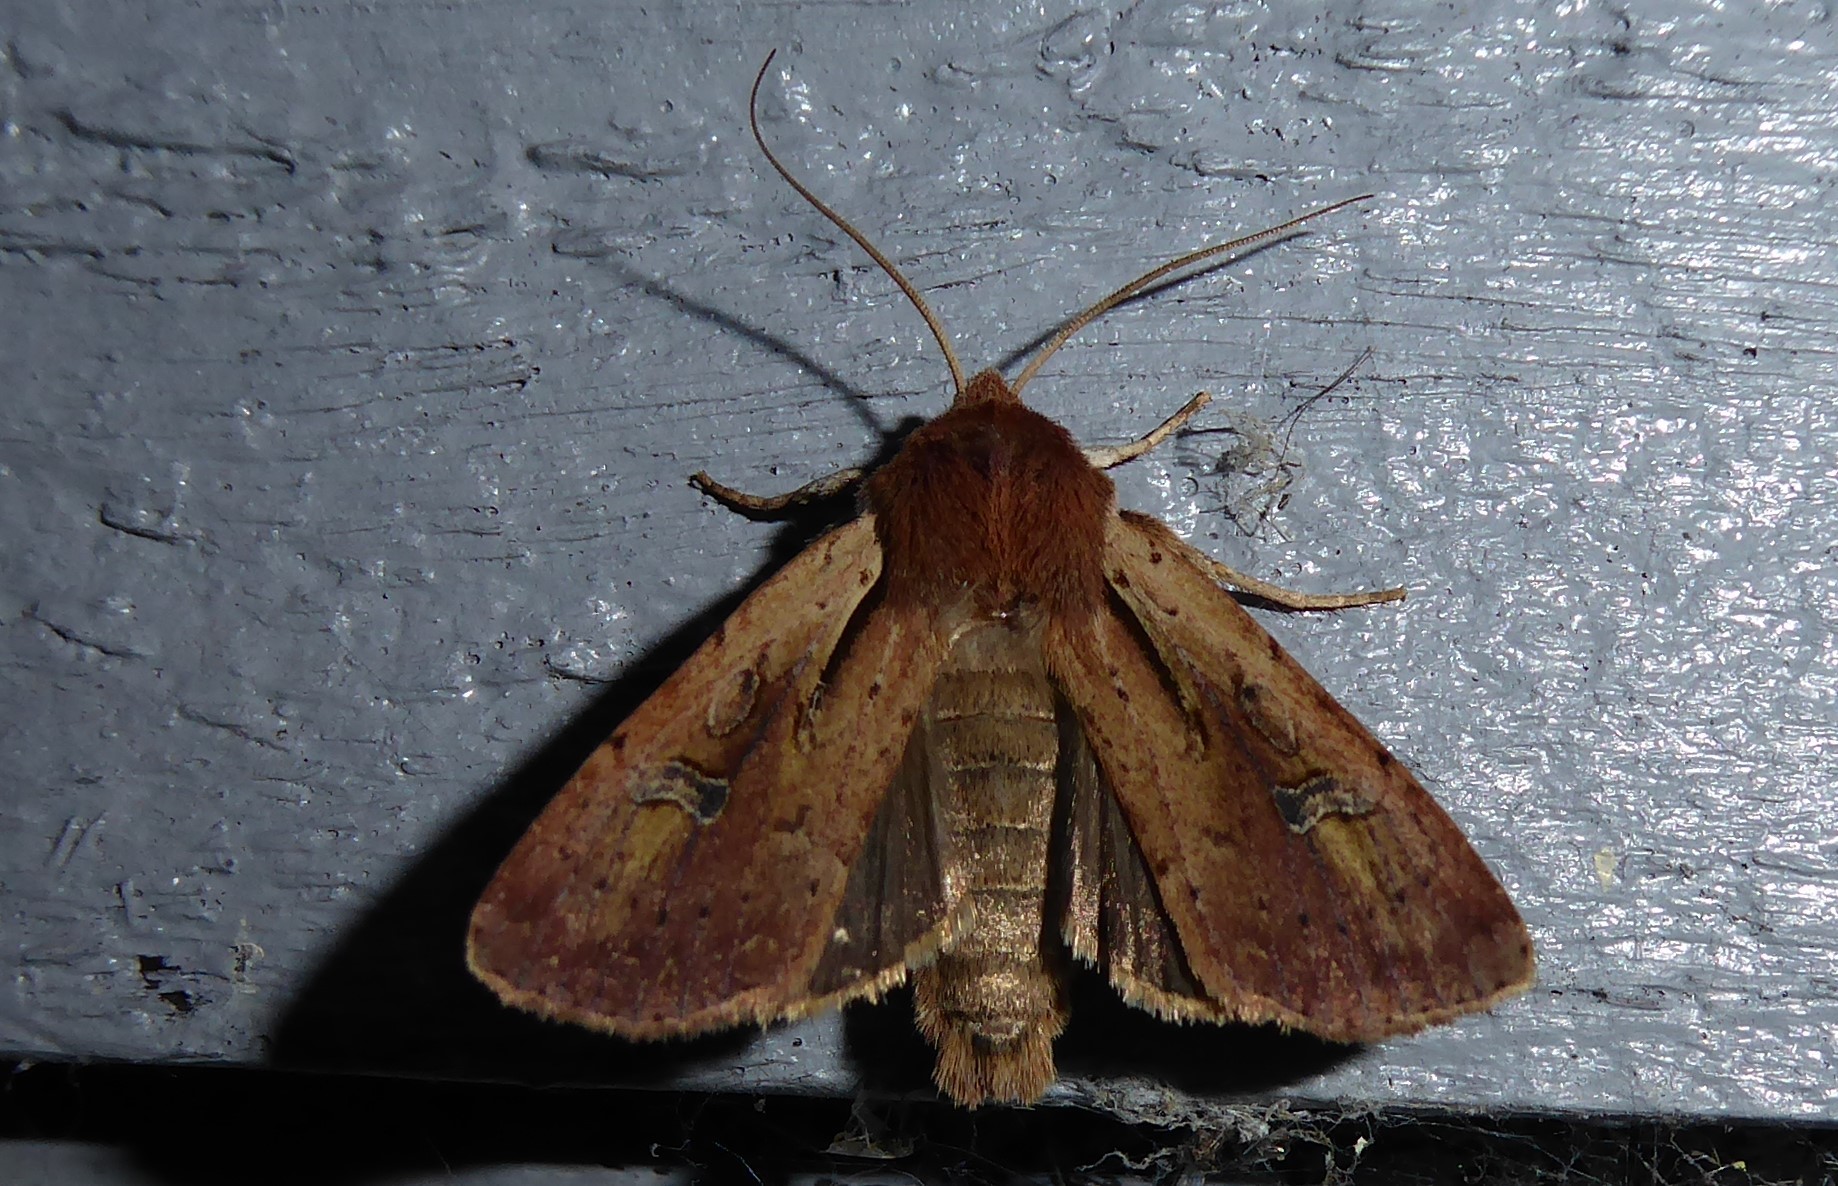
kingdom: Animalia
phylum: Arthropoda
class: Insecta
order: Lepidoptera
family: Noctuidae
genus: Ichneutica
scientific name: Ichneutica atristriga
